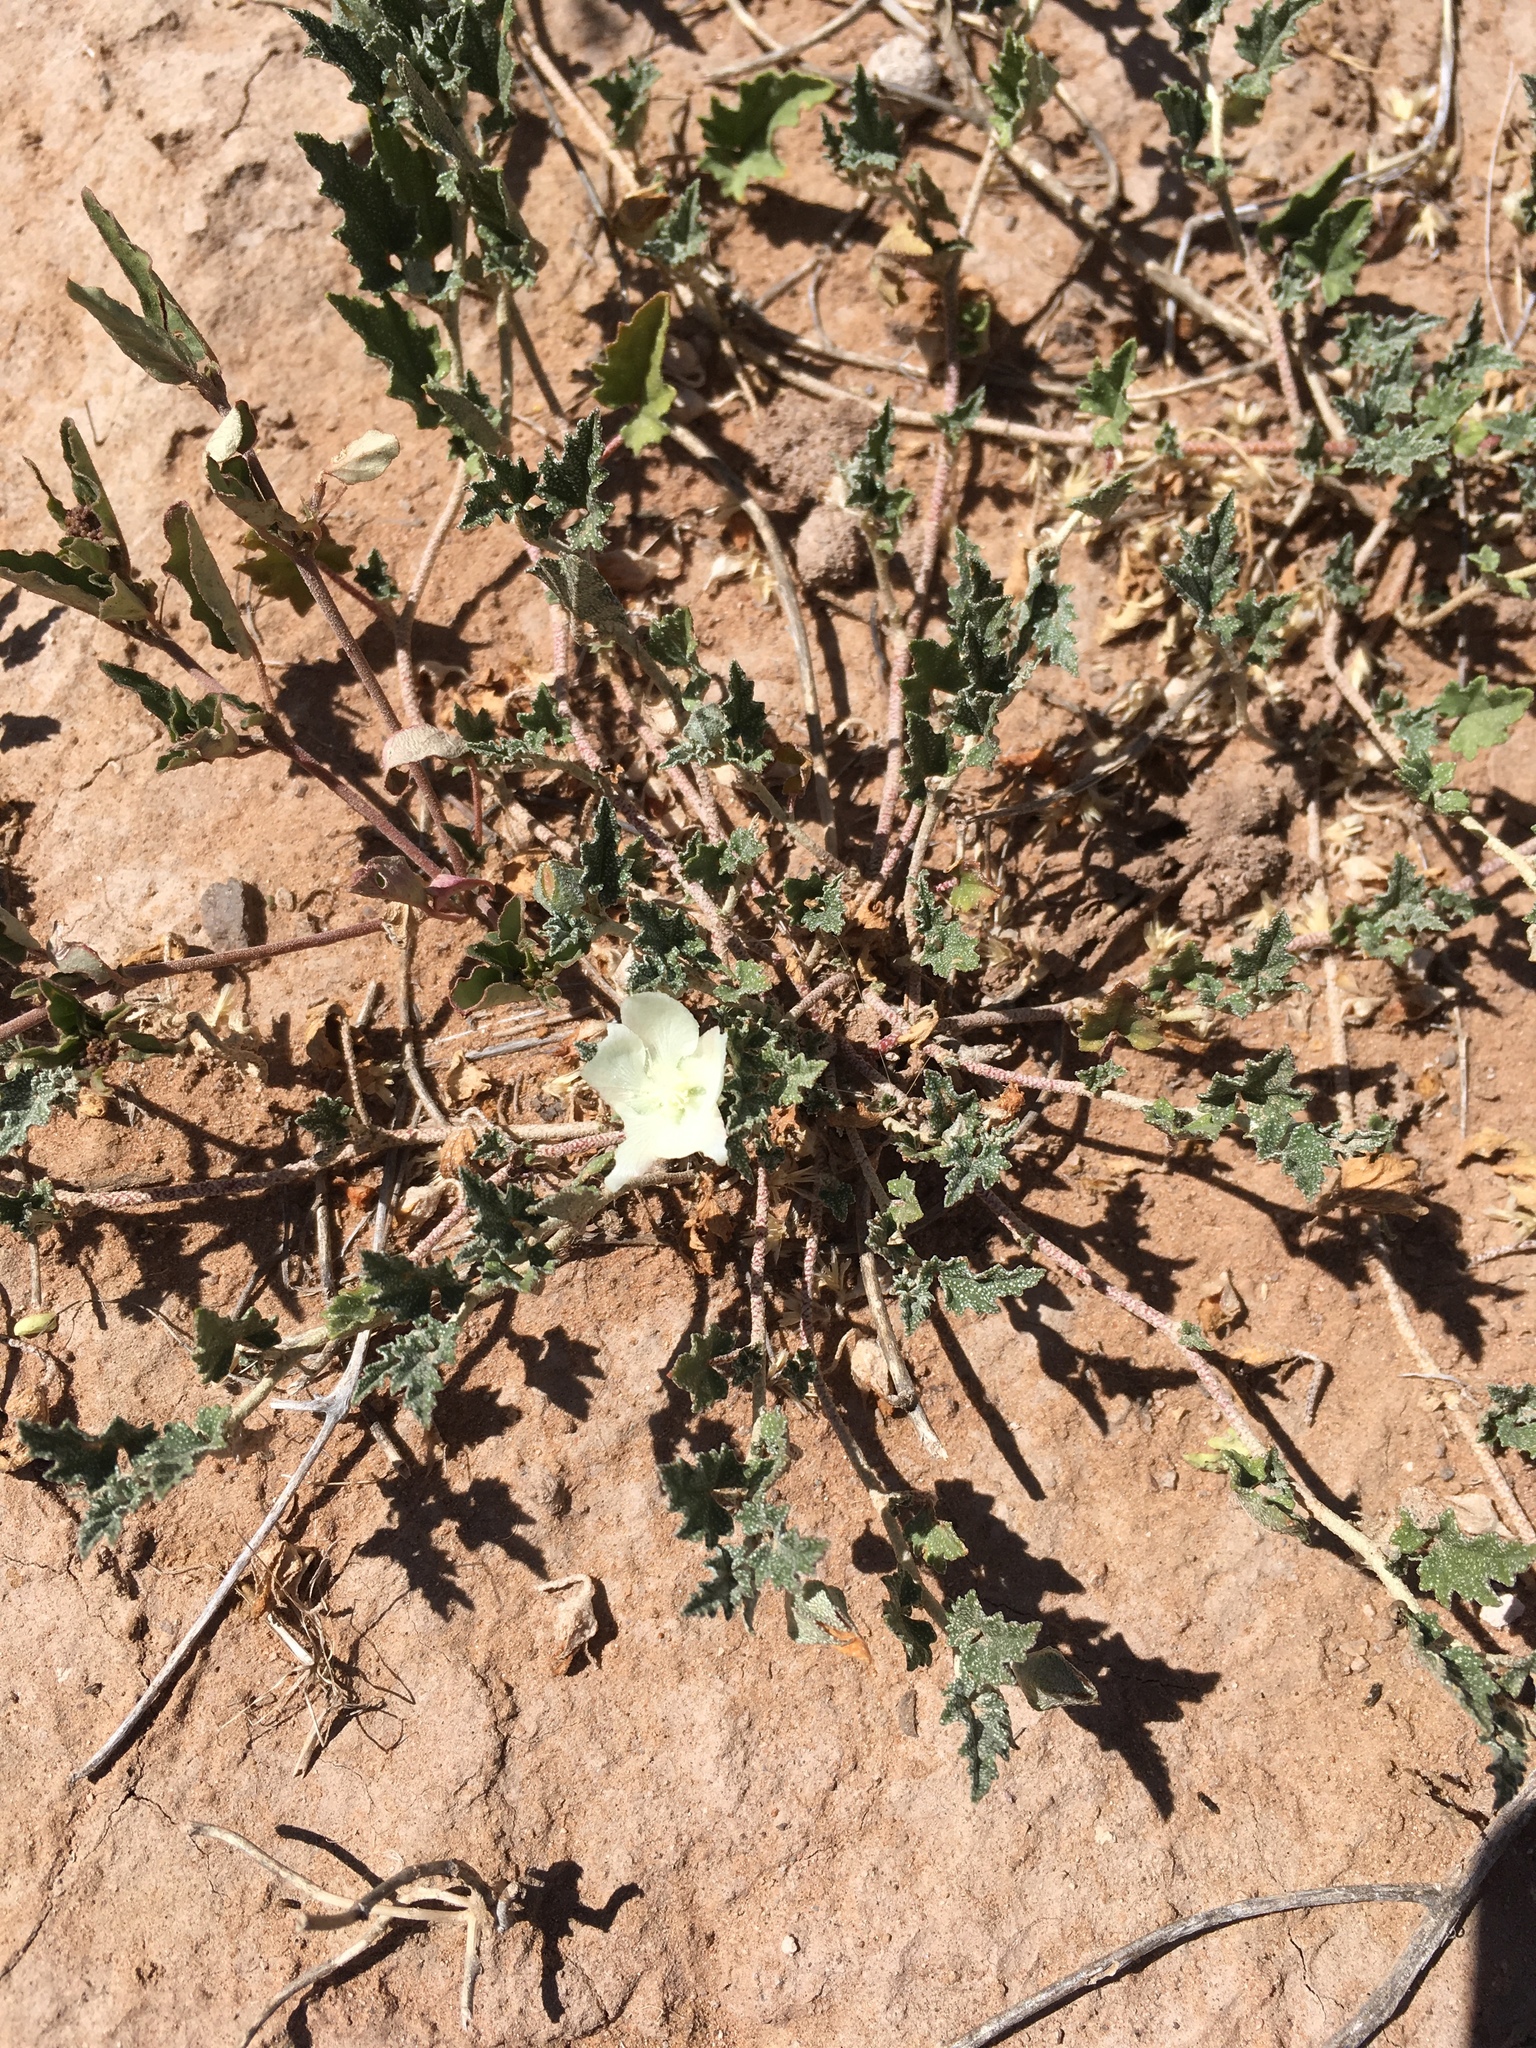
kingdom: Plantae
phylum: Tracheophyta
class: Magnoliopsida
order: Malvales
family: Malvaceae
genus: Malvella
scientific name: Malvella lepidota
